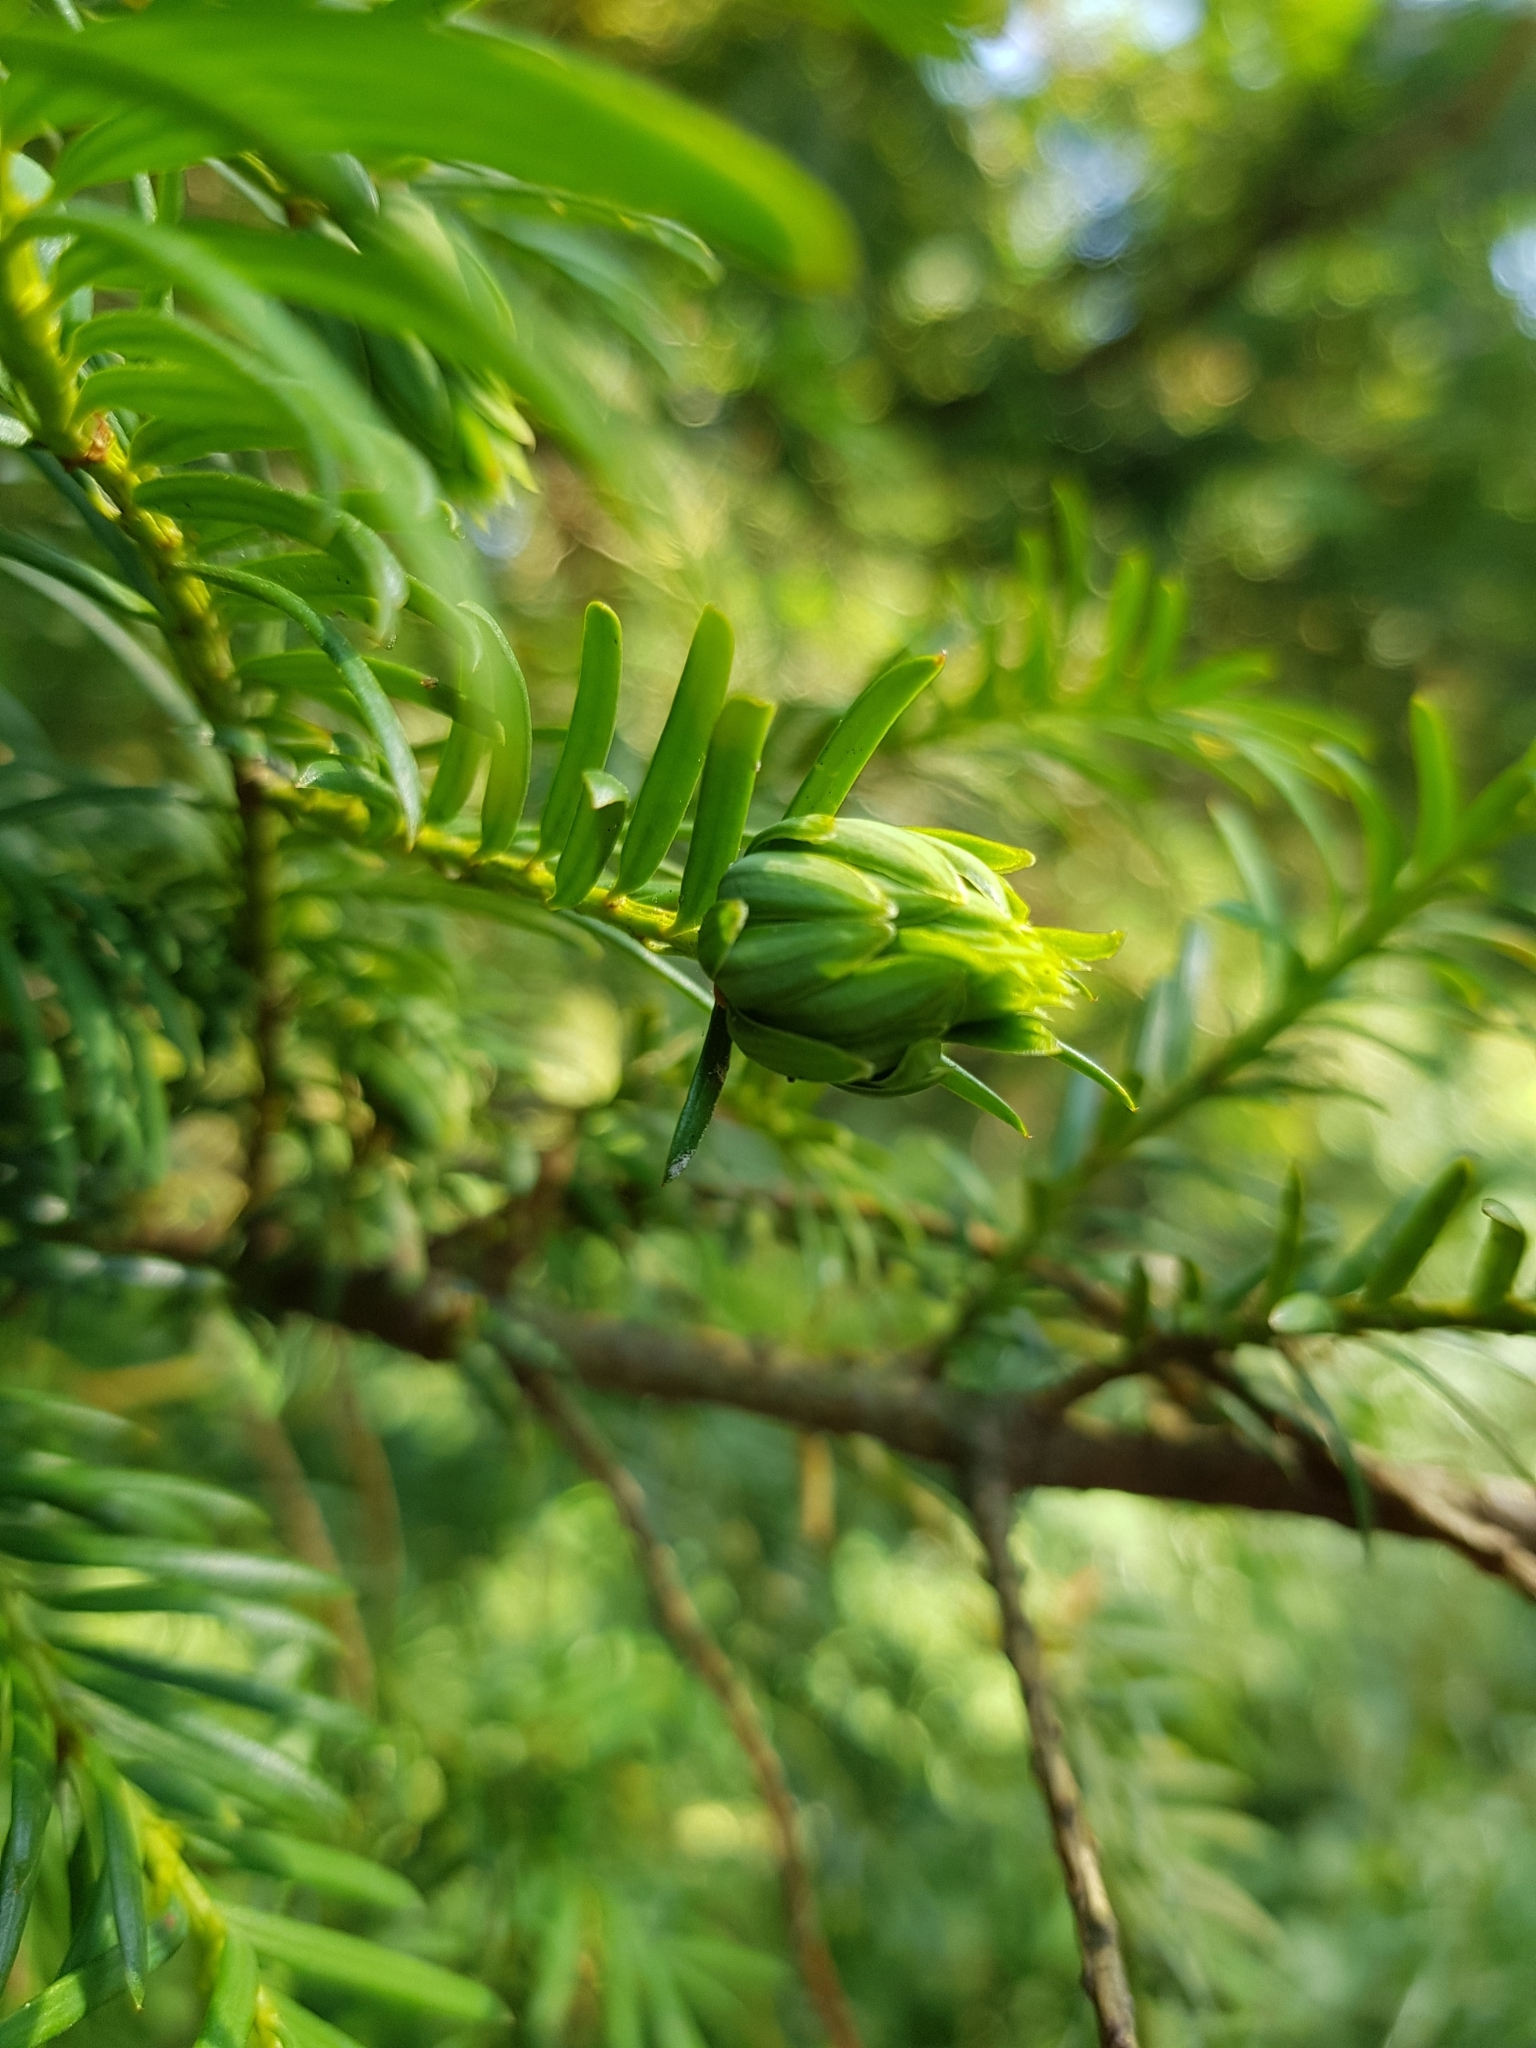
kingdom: Animalia
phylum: Arthropoda
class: Insecta
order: Diptera
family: Cecidomyiidae
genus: Taxomyia
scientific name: Taxomyia taxi
